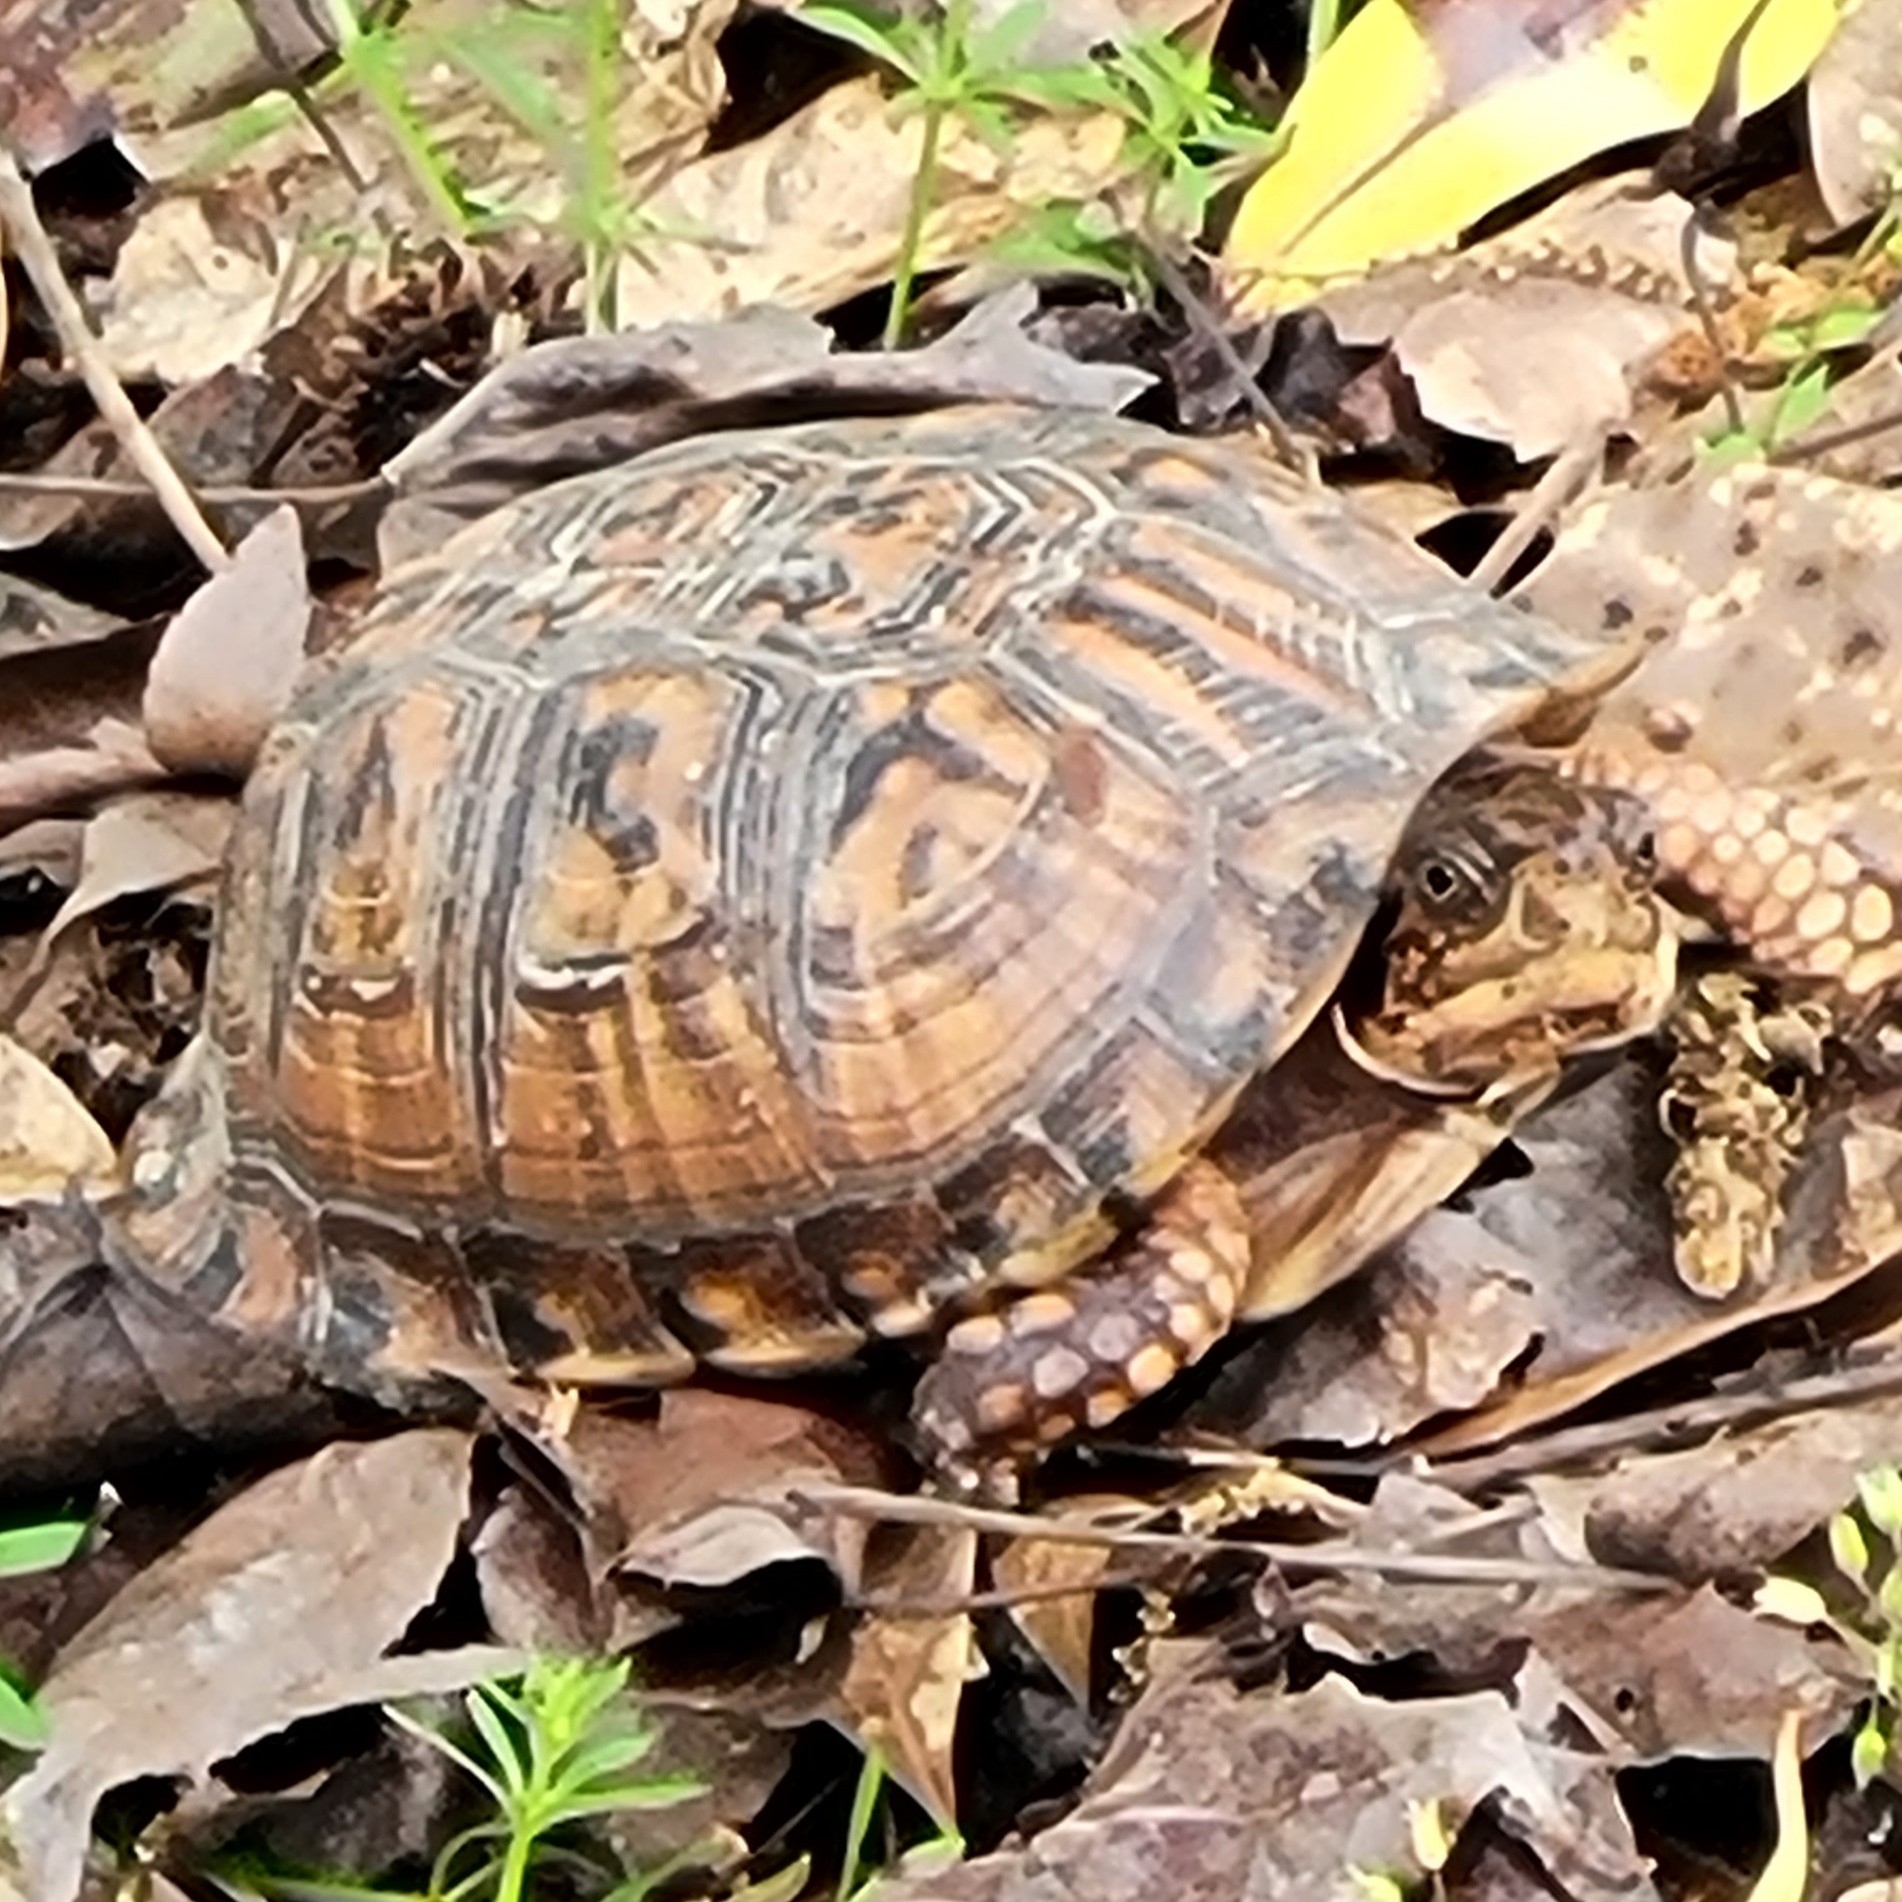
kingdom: Animalia
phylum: Chordata
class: Testudines
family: Emydidae
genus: Terrapene
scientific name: Terrapene carolina
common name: Common box turtle
